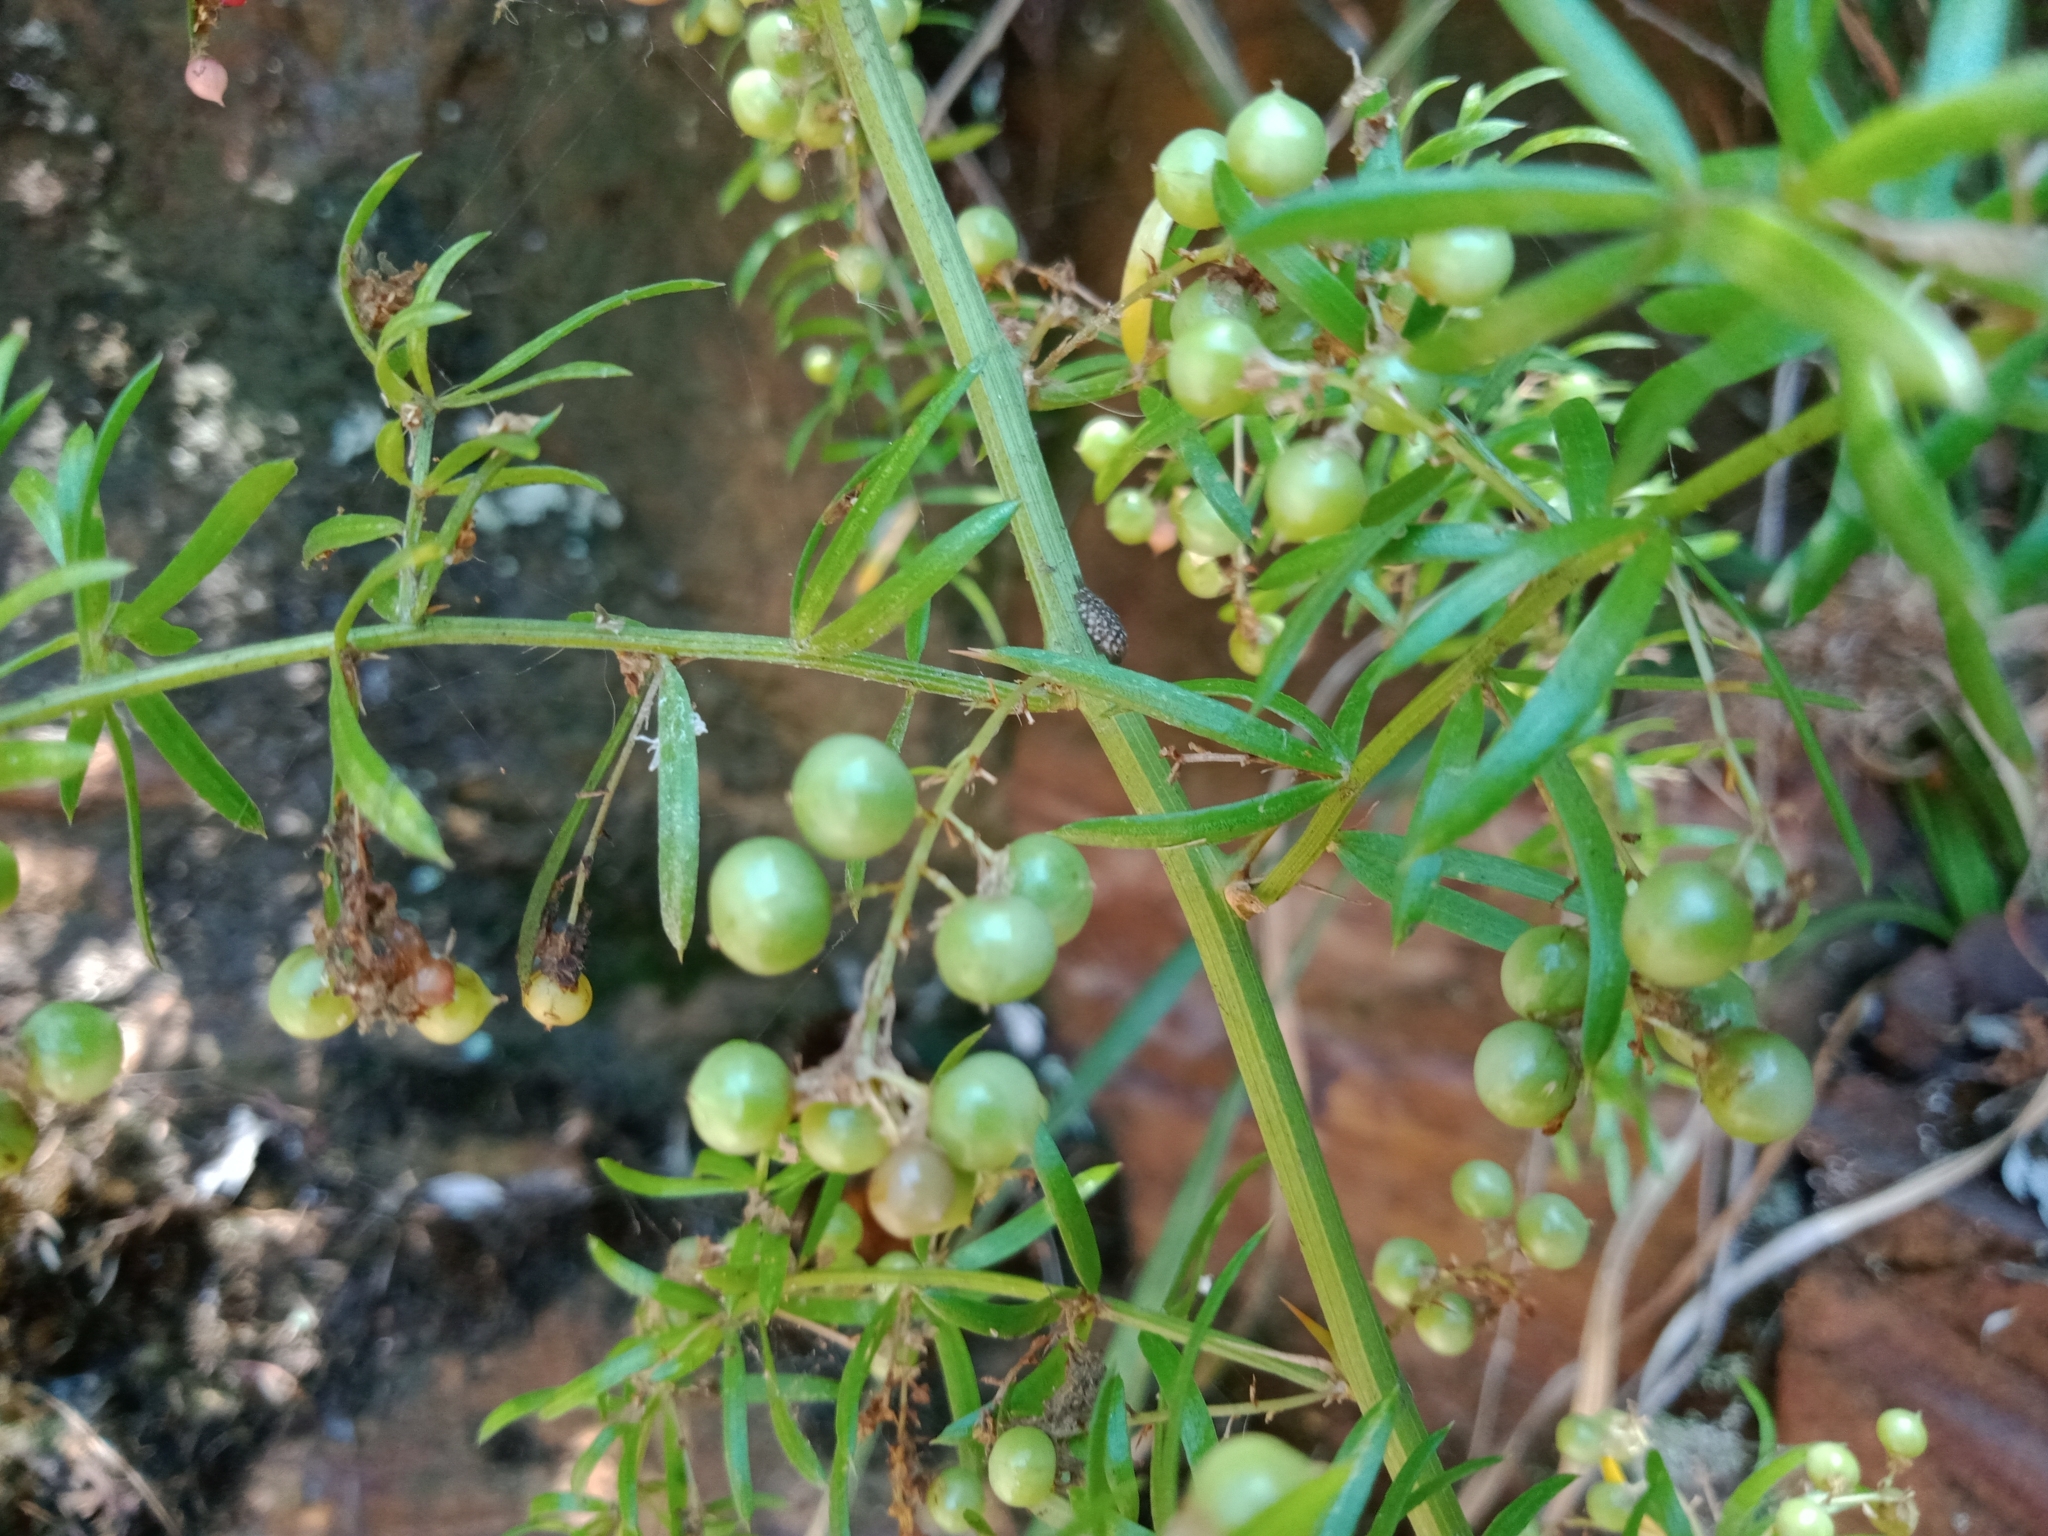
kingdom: Plantae
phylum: Tracheophyta
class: Liliopsida
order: Asparagales
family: Asparagaceae
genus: Asparagus
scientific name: Asparagus aethiopicus
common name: Sprenger's asparagus fern
